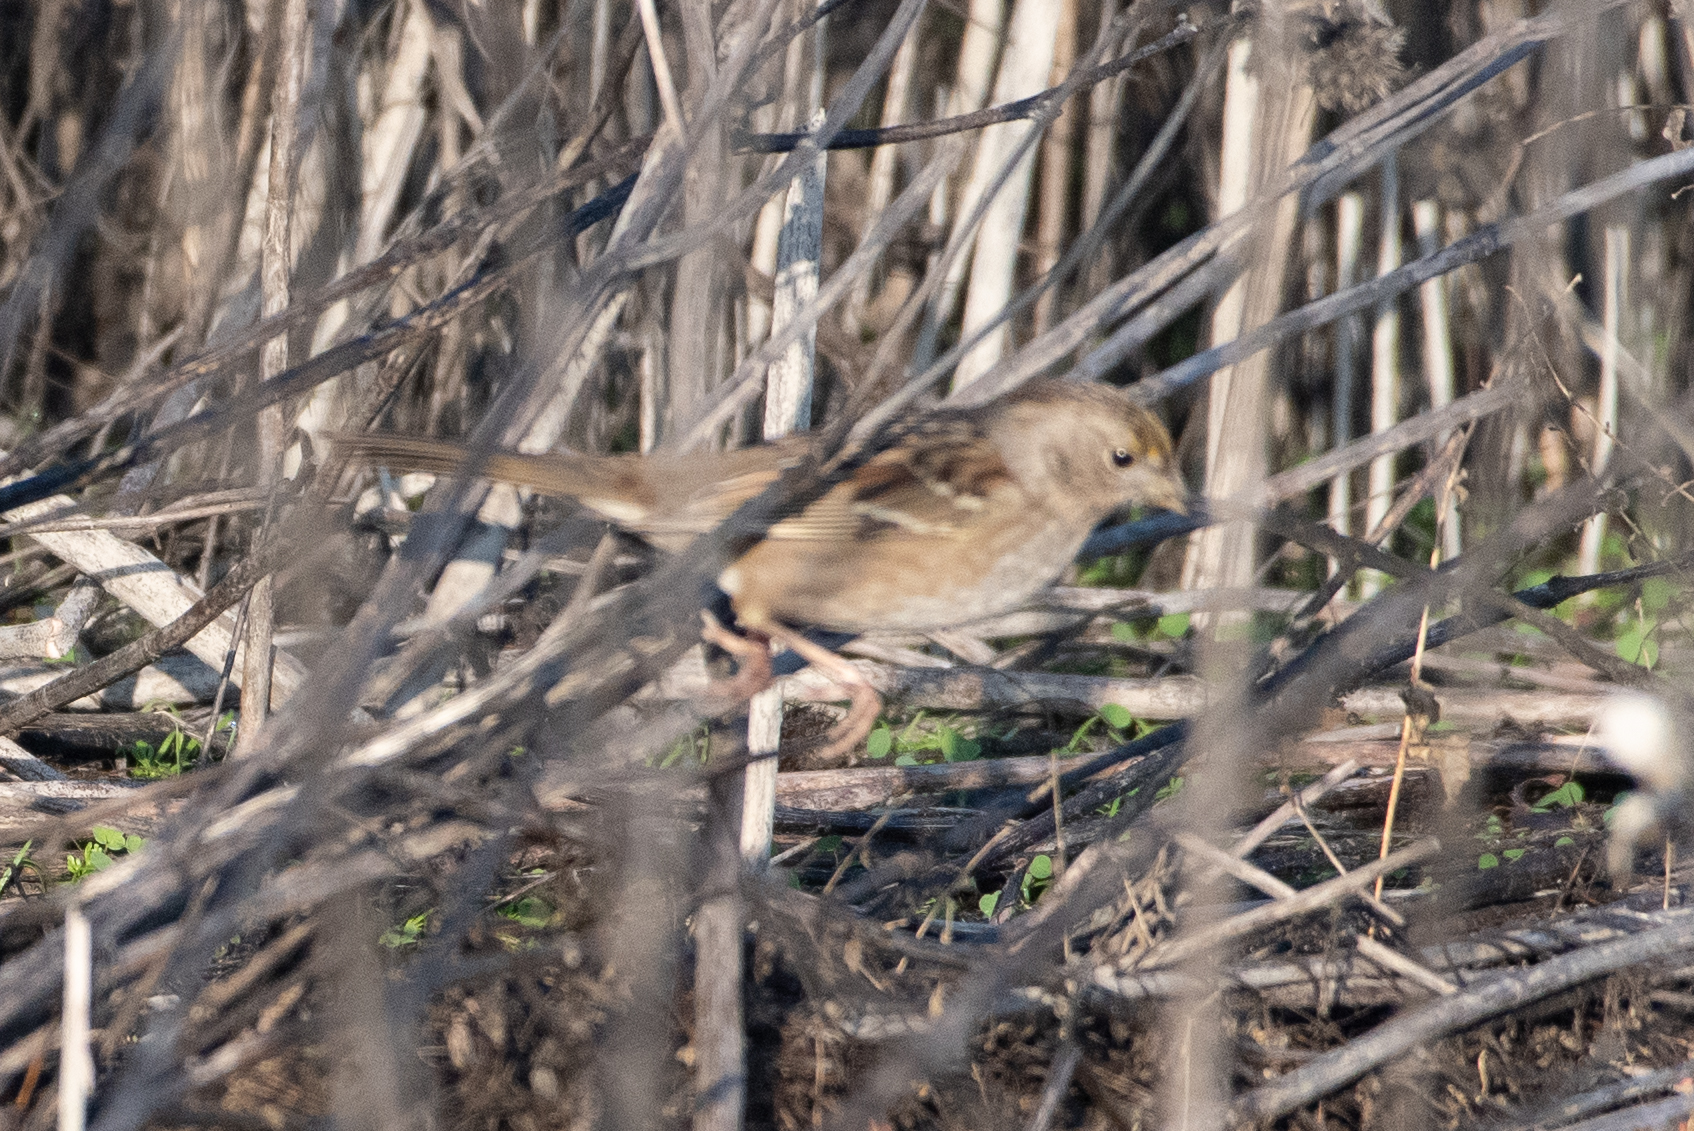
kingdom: Animalia
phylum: Chordata
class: Aves
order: Passeriformes
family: Passerellidae
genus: Zonotrichia
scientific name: Zonotrichia atricapilla
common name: Golden-crowned sparrow
